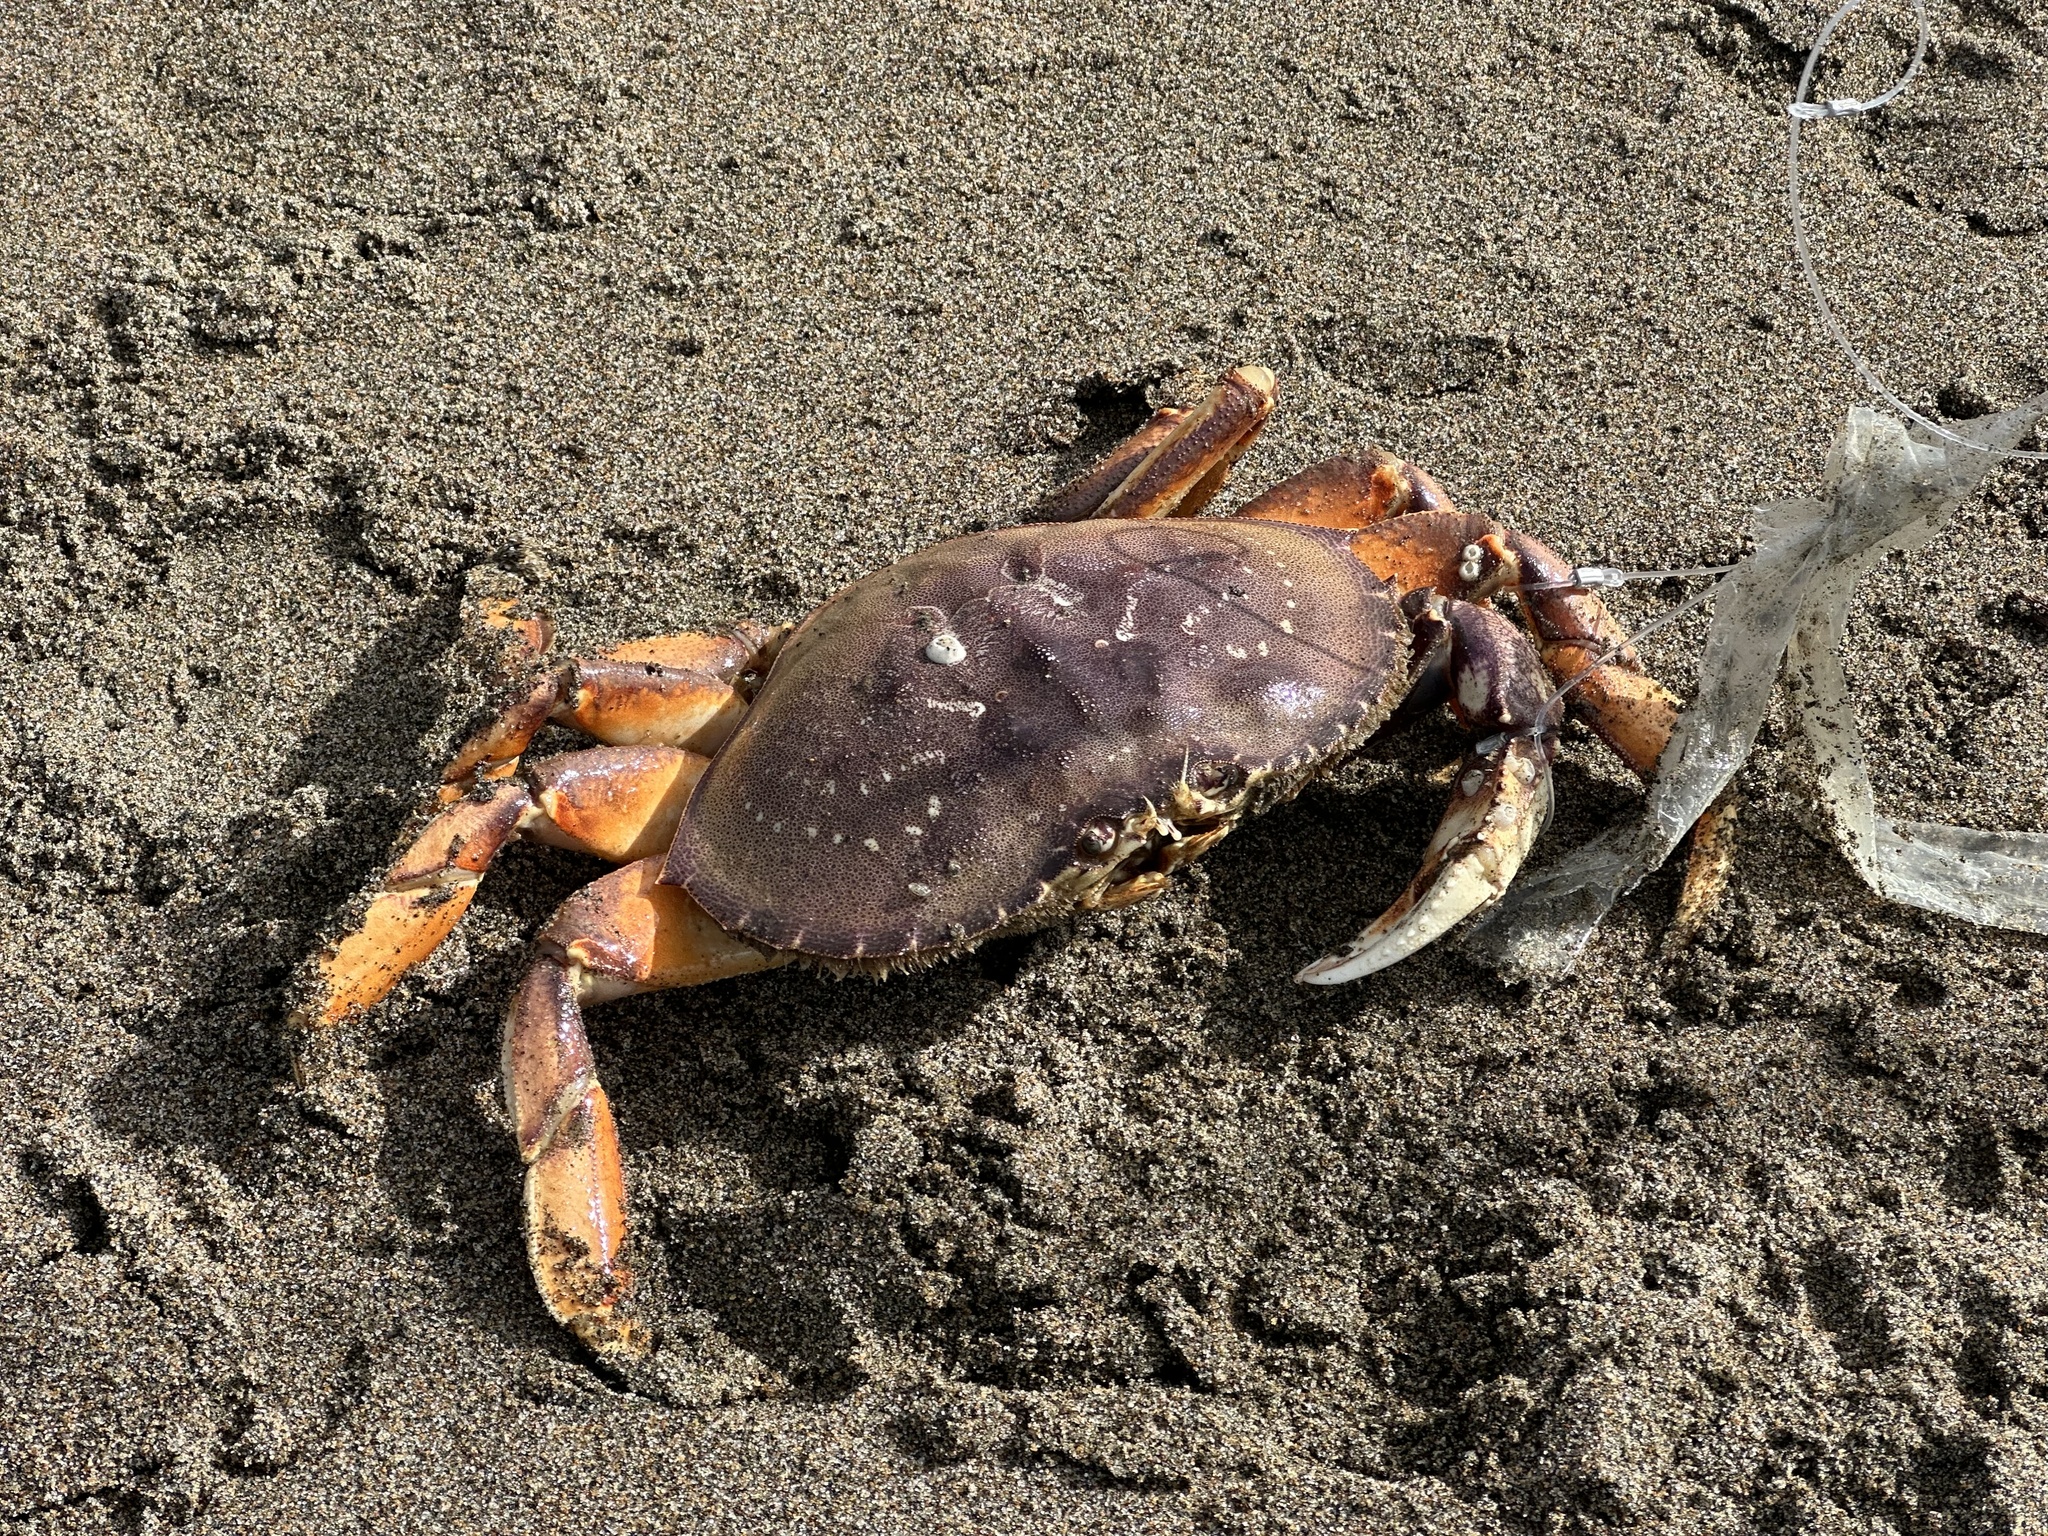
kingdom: Animalia
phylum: Arthropoda
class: Malacostraca
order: Decapoda
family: Cancridae
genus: Metacarcinus
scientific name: Metacarcinus magister
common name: Californian crab
